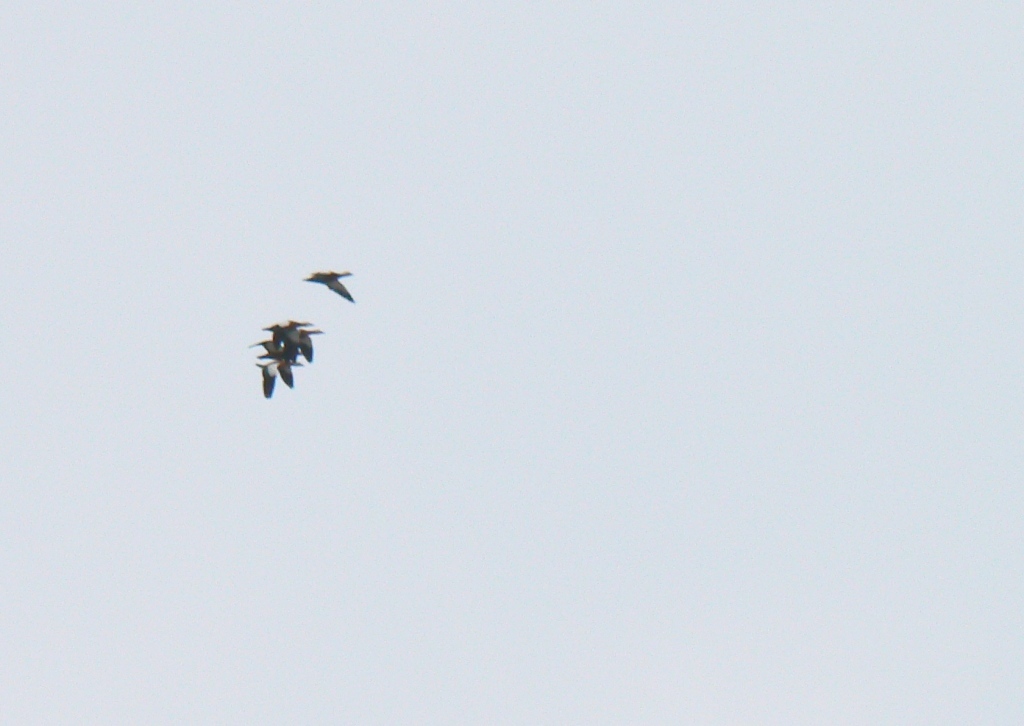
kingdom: Animalia
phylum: Chordata
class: Aves
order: Anseriformes
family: Anatidae
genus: Tadorna
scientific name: Tadorna ferruginea
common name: Ruddy shelduck
